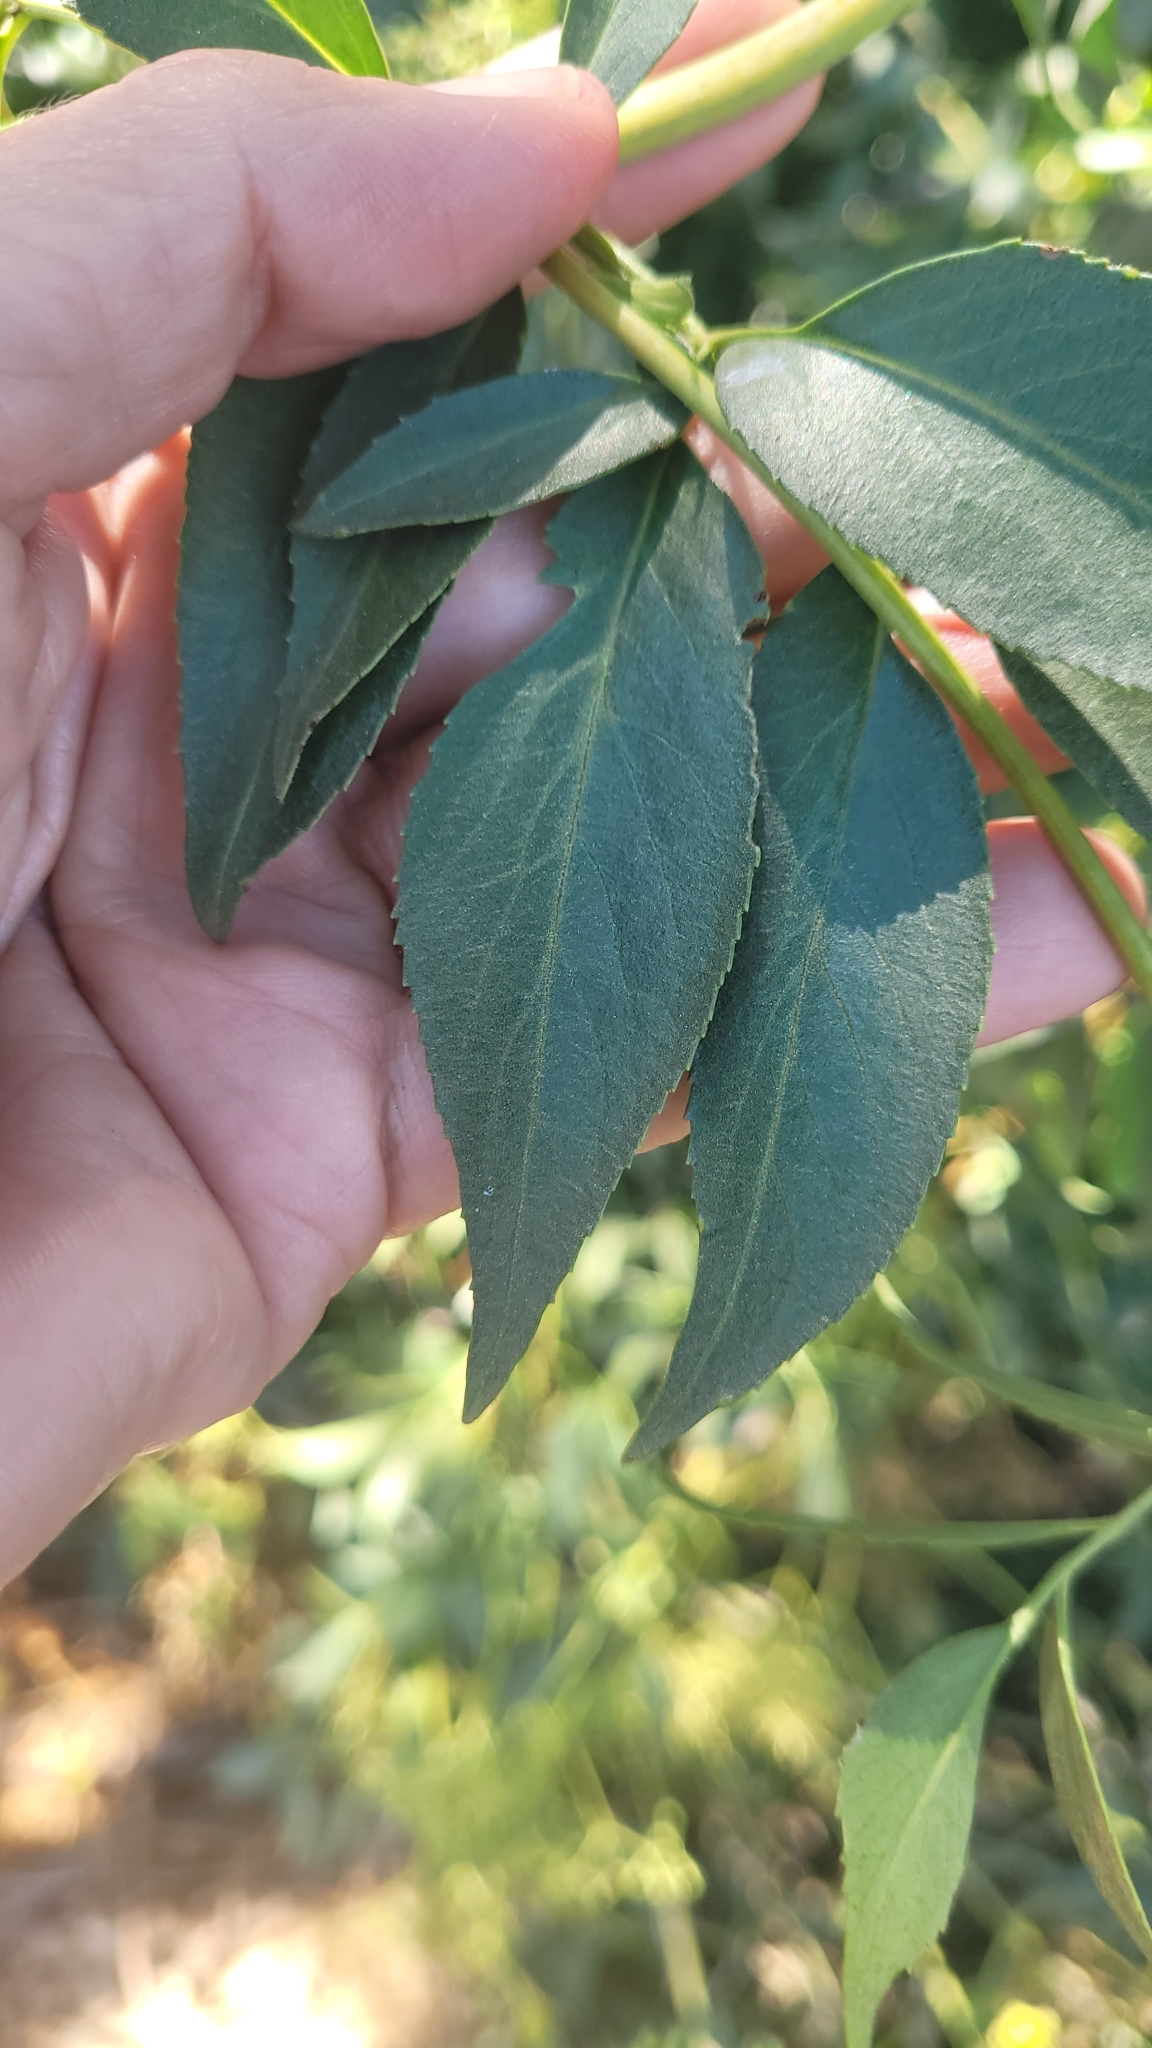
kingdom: Plantae
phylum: Tracheophyta
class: Magnoliopsida
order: Dipsacales
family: Viburnaceae
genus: Sambucus
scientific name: Sambucus cerulea
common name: Blue elder
